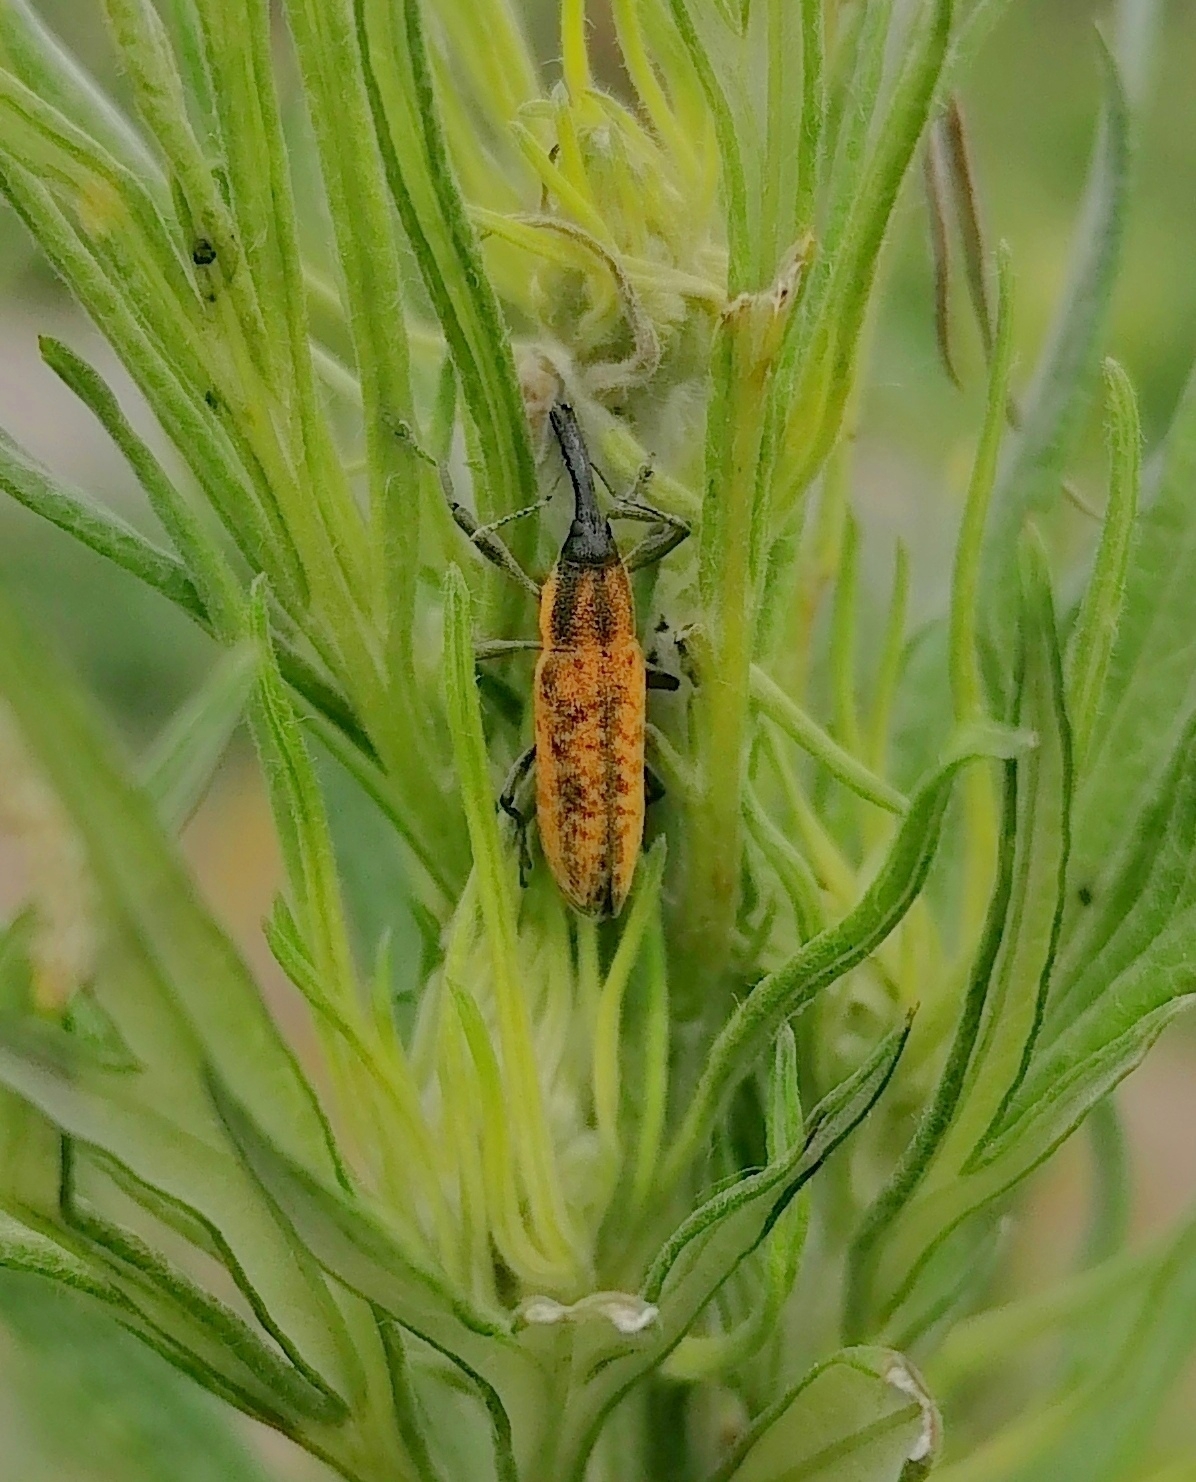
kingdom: Animalia
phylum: Arthropoda
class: Insecta
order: Coleoptera
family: Curculionidae
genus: Lixus
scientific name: Lixus fasciculatus
